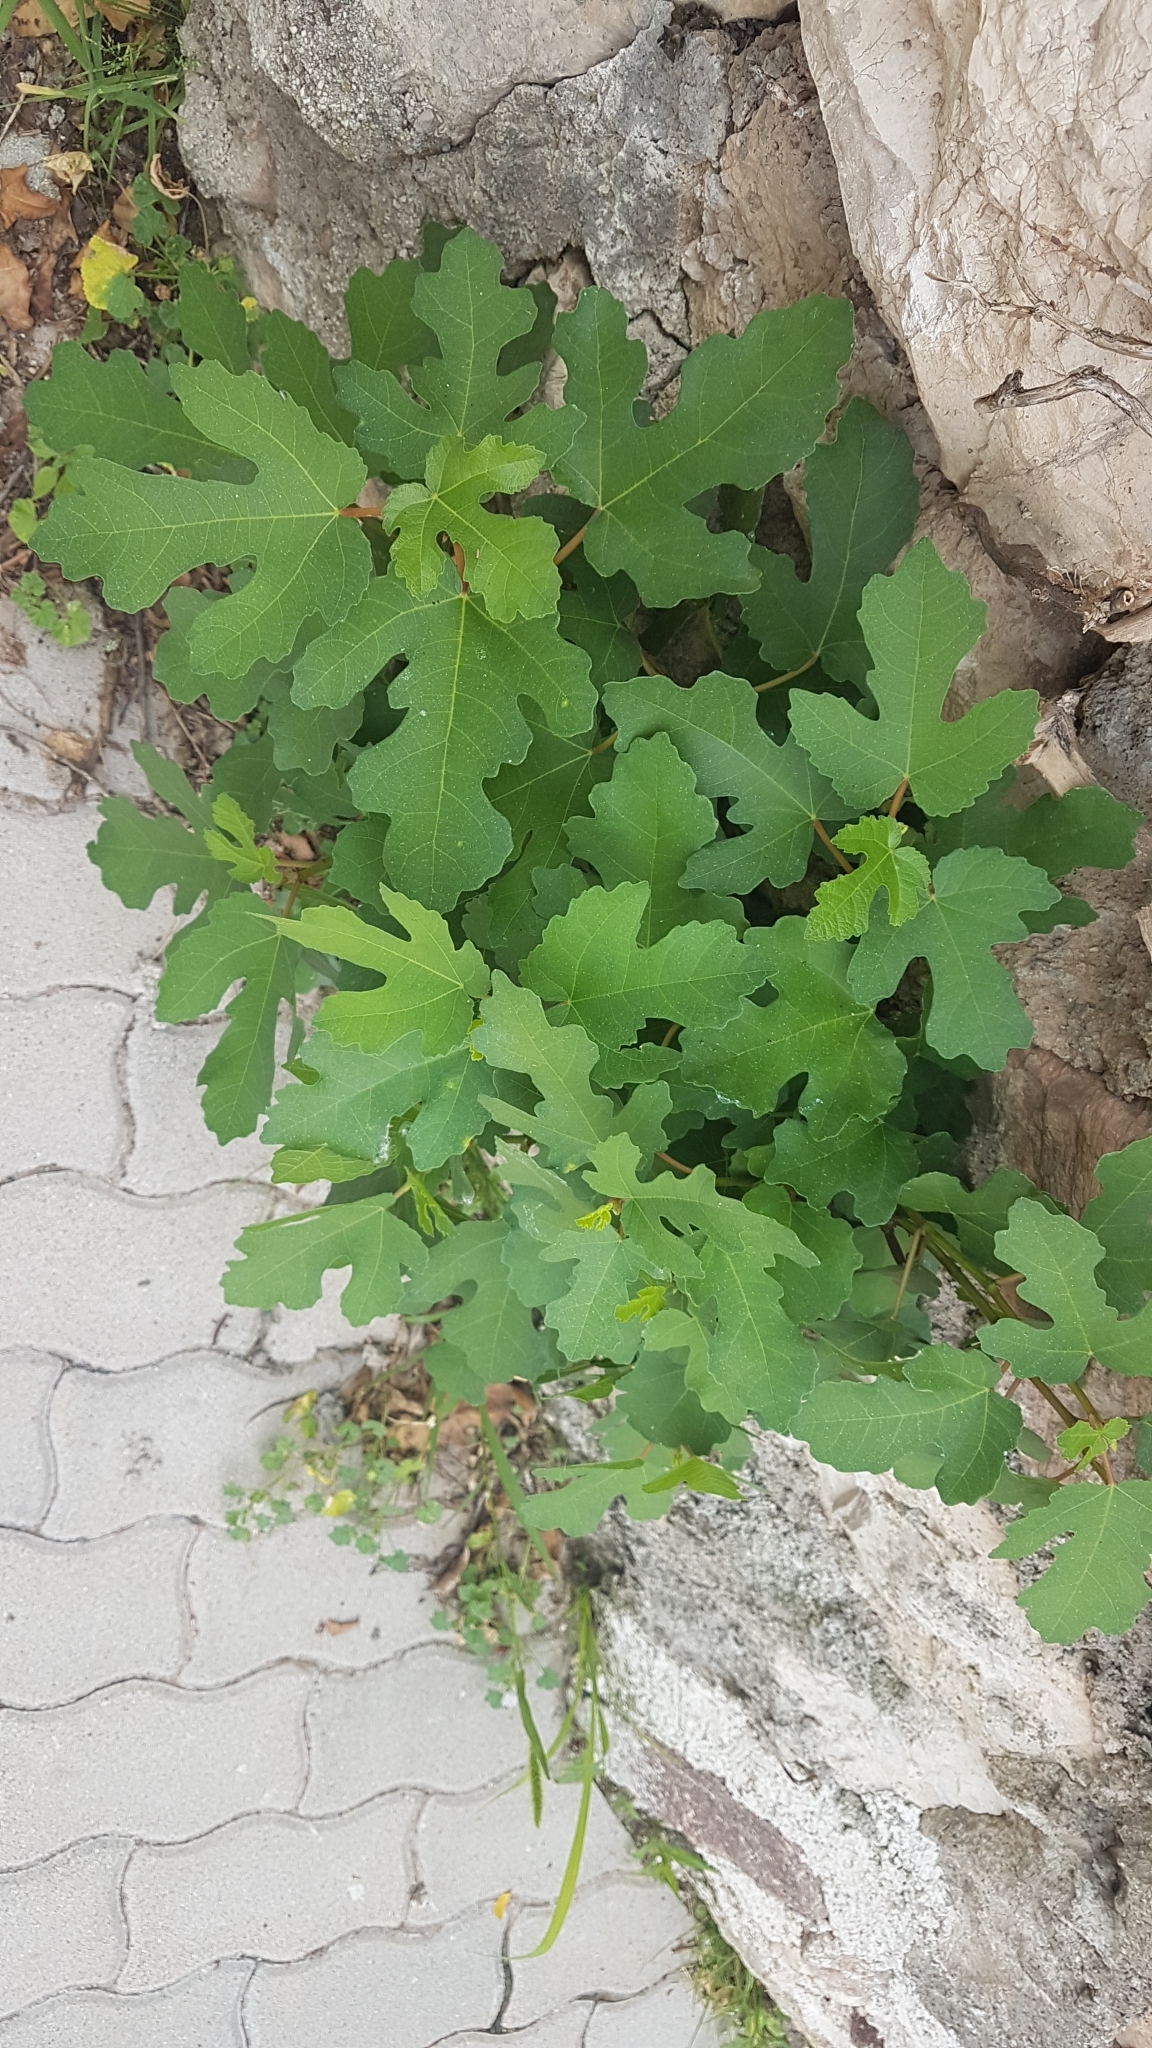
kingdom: Plantae
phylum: Tracheophyta
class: Magnoliopsida
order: Rosales
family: Moraceae
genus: Ficus
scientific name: Ficus carica
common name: Fig
